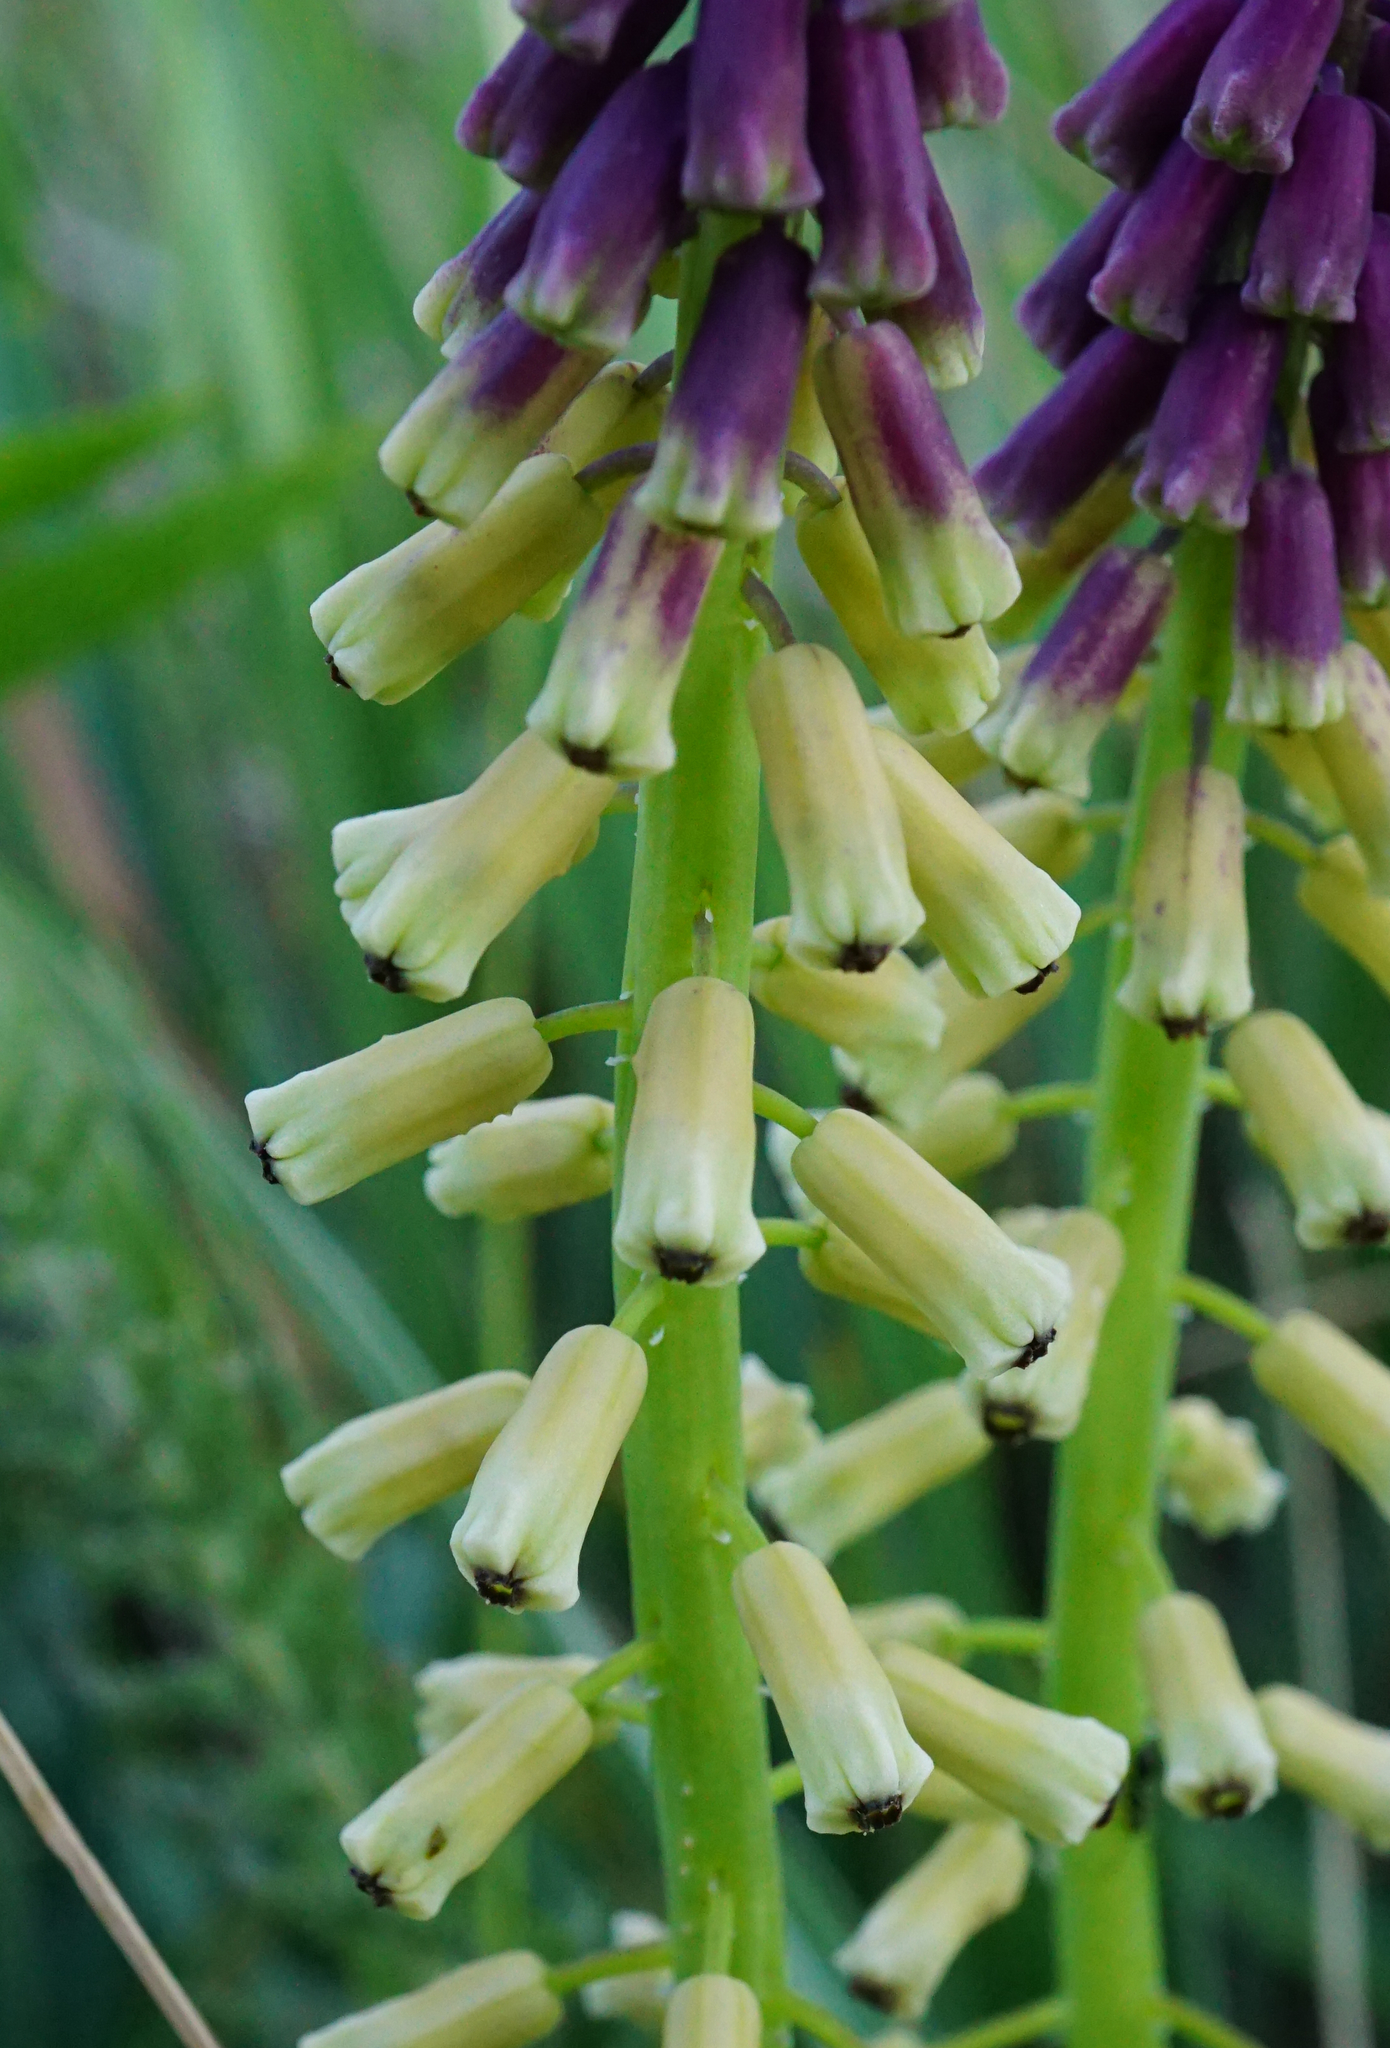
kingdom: Plantae
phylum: Tracheophyta
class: Liliopsida
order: Asparagales
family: Asparagaceae
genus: Muscari
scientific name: Muscari tenuiflorum
